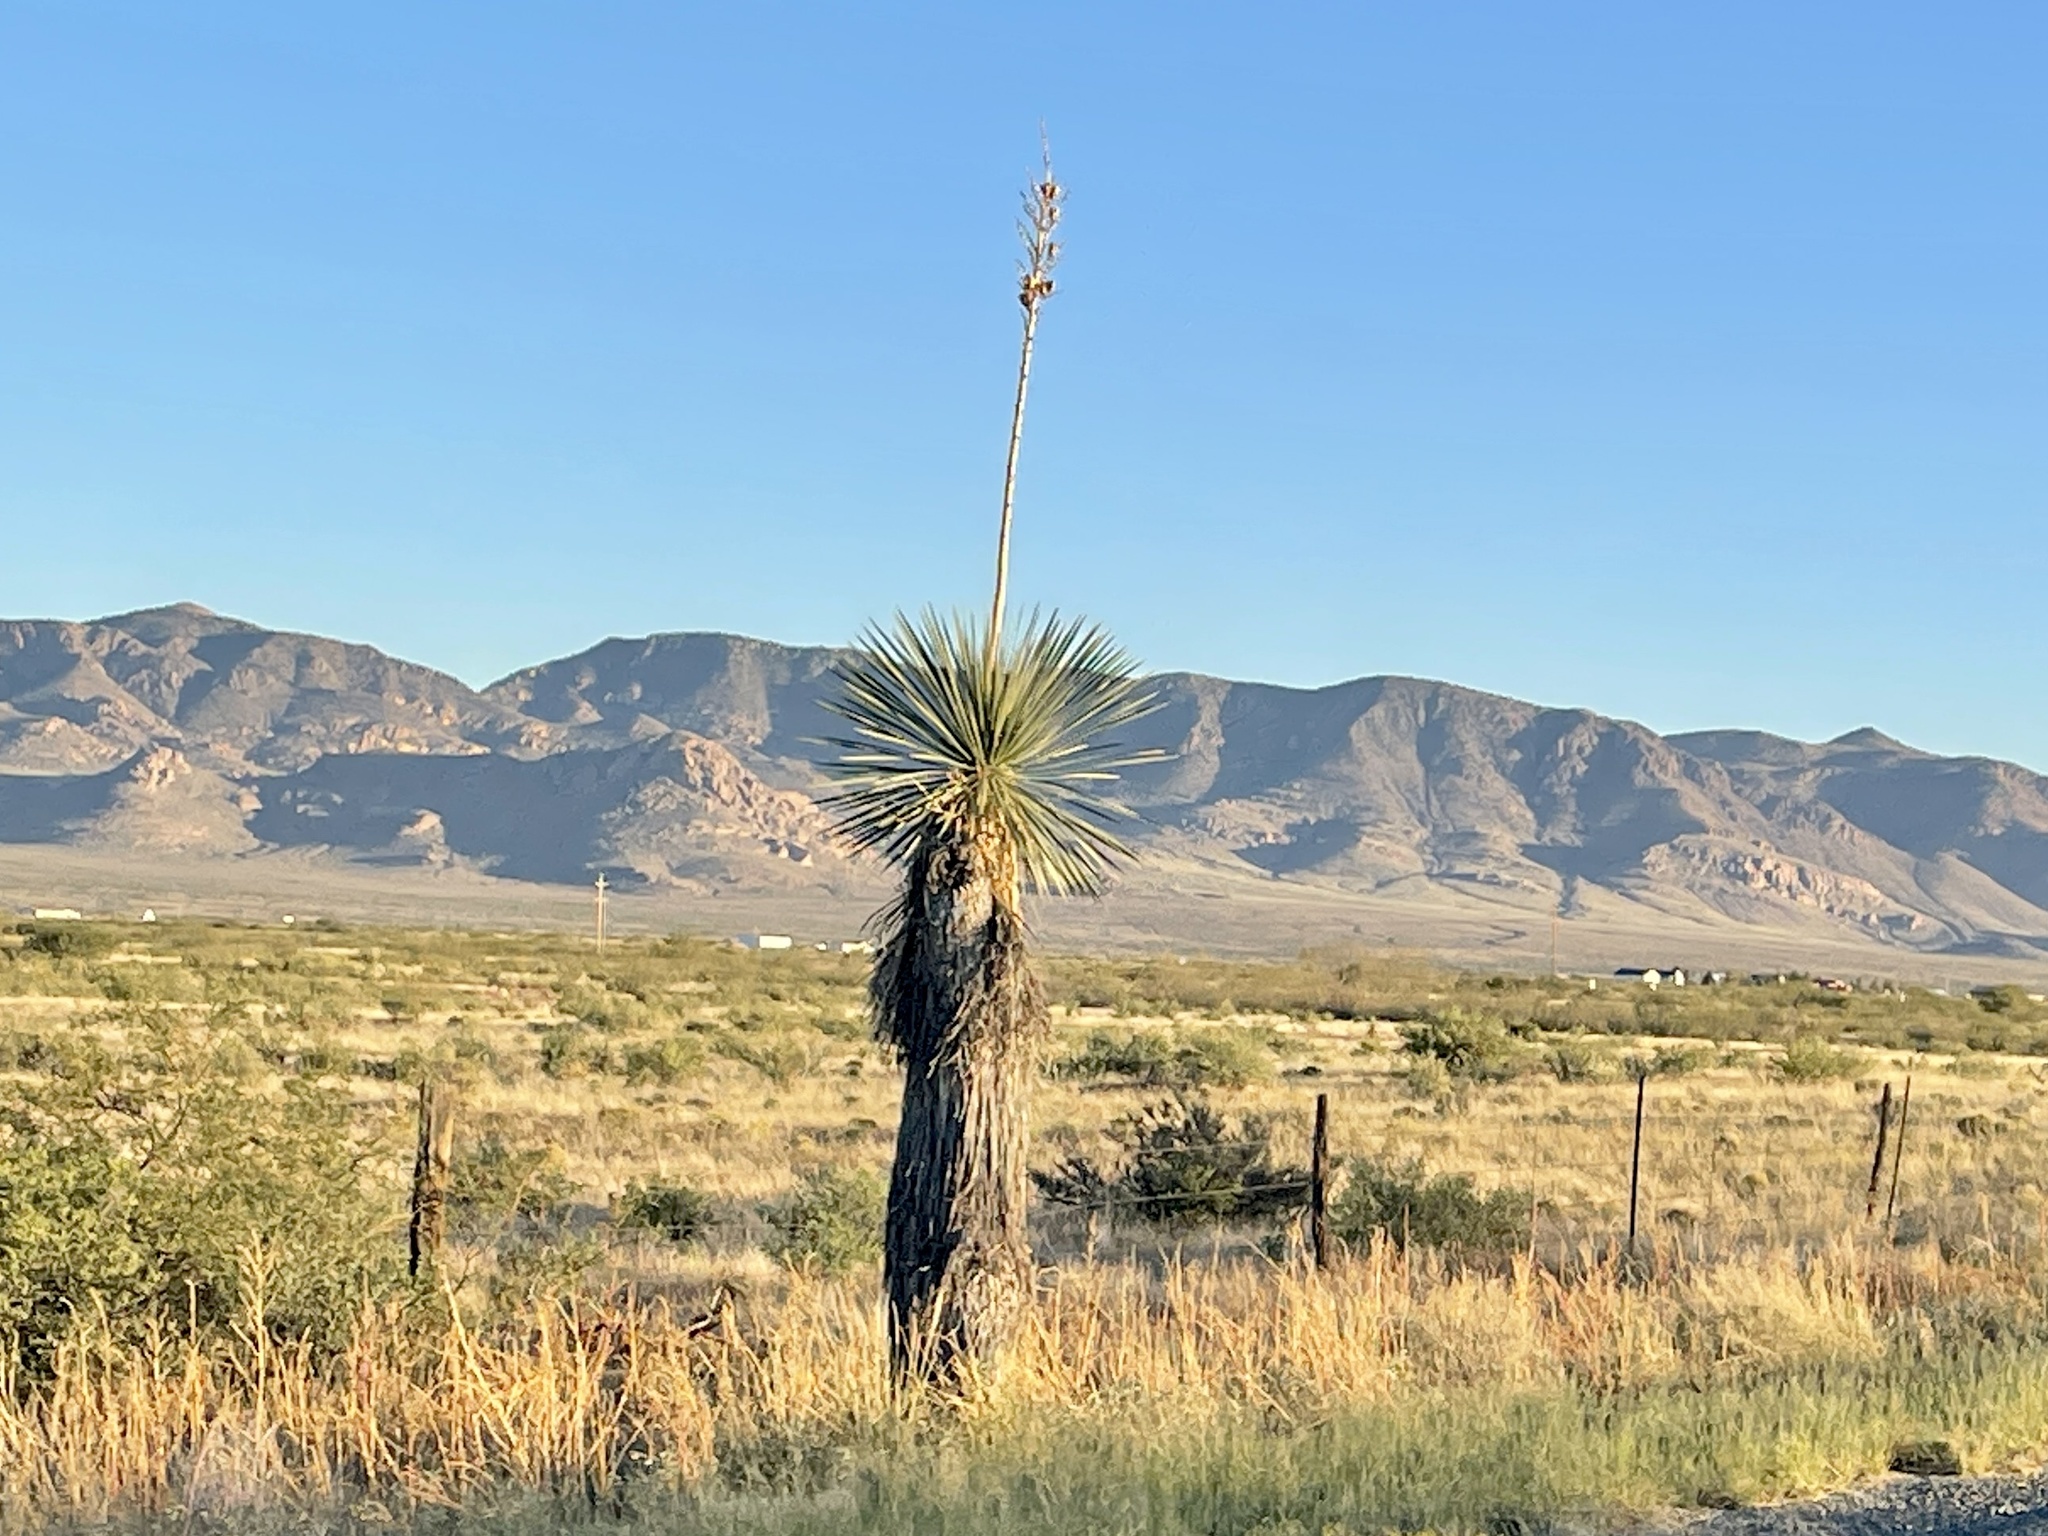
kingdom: Plantae
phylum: Tracheophyta
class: Liliopsida
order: Asparagales
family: Asparagaceae
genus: Yucca
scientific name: Yucca elata
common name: Palmella
